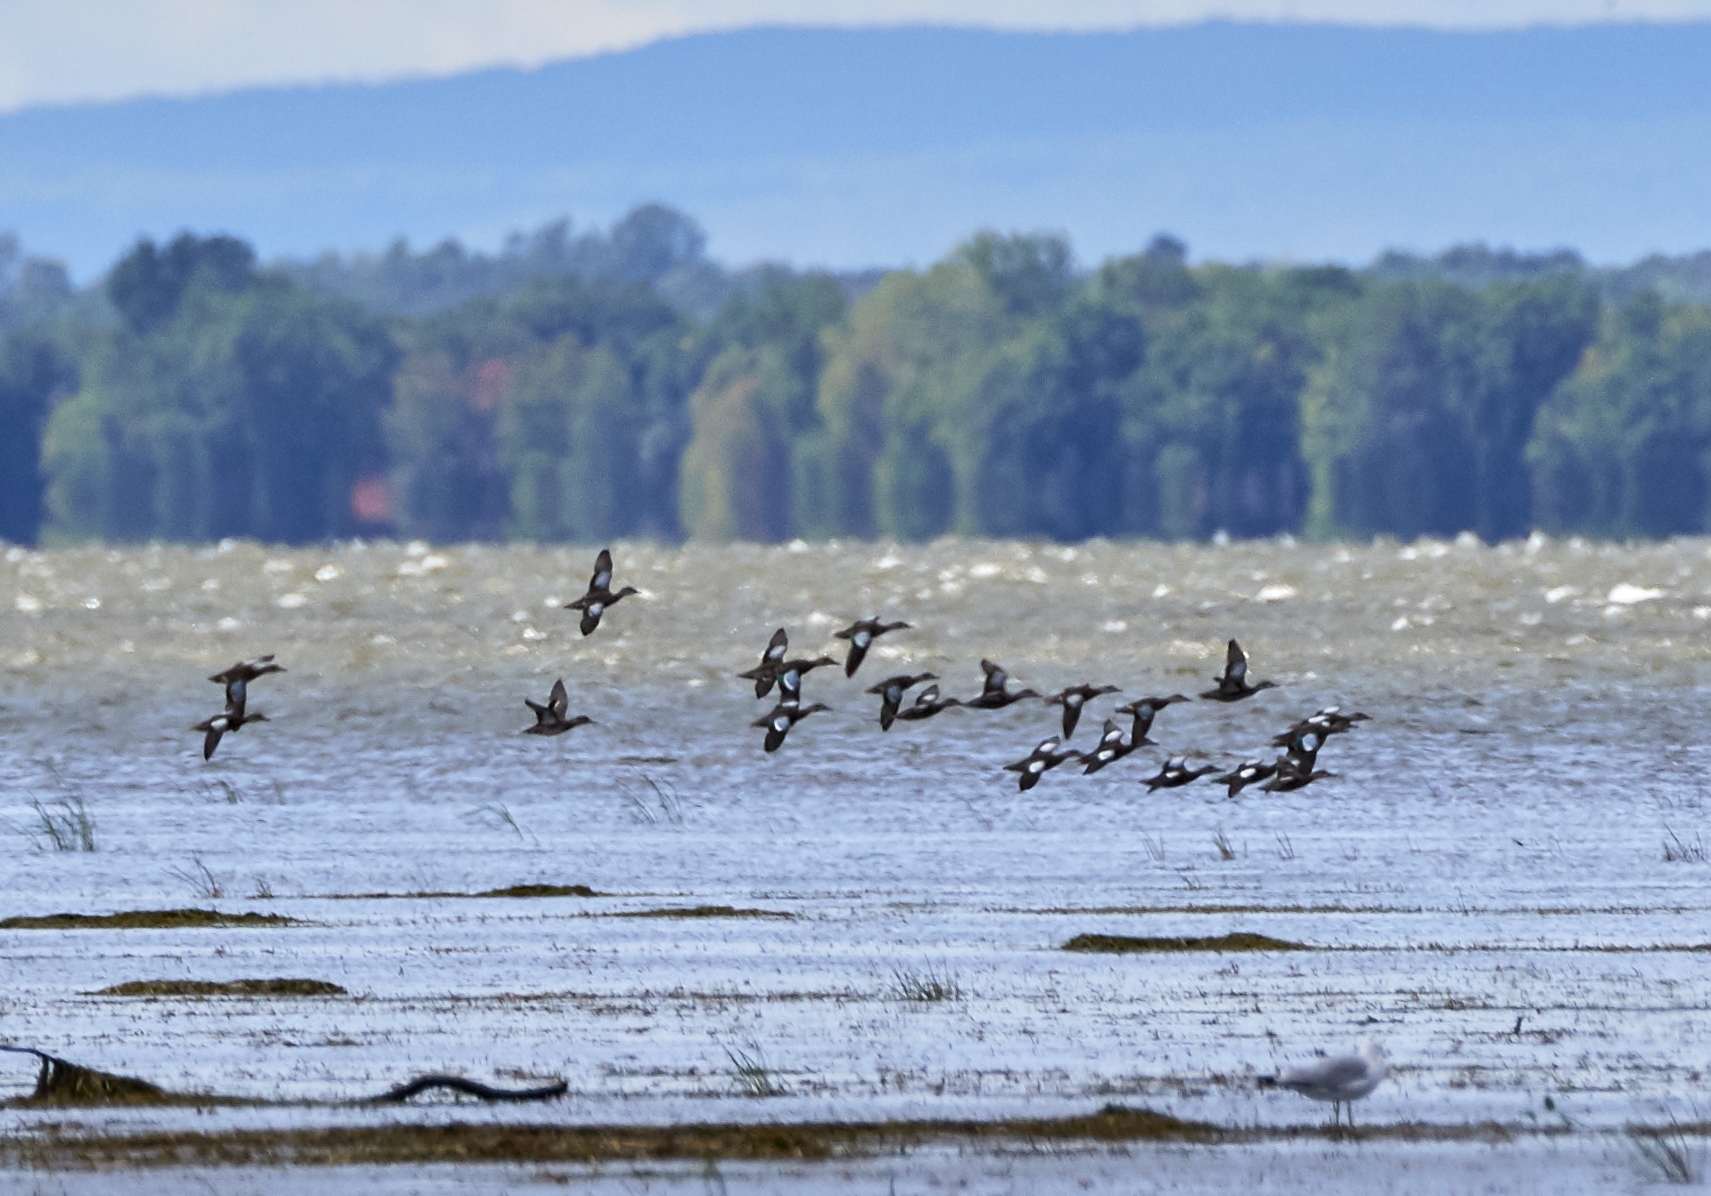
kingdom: Animalia
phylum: Chordata
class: Aves
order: Anseriformes
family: Anatidae
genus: Anas
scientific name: Anas crecca
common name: Eurasian teal
